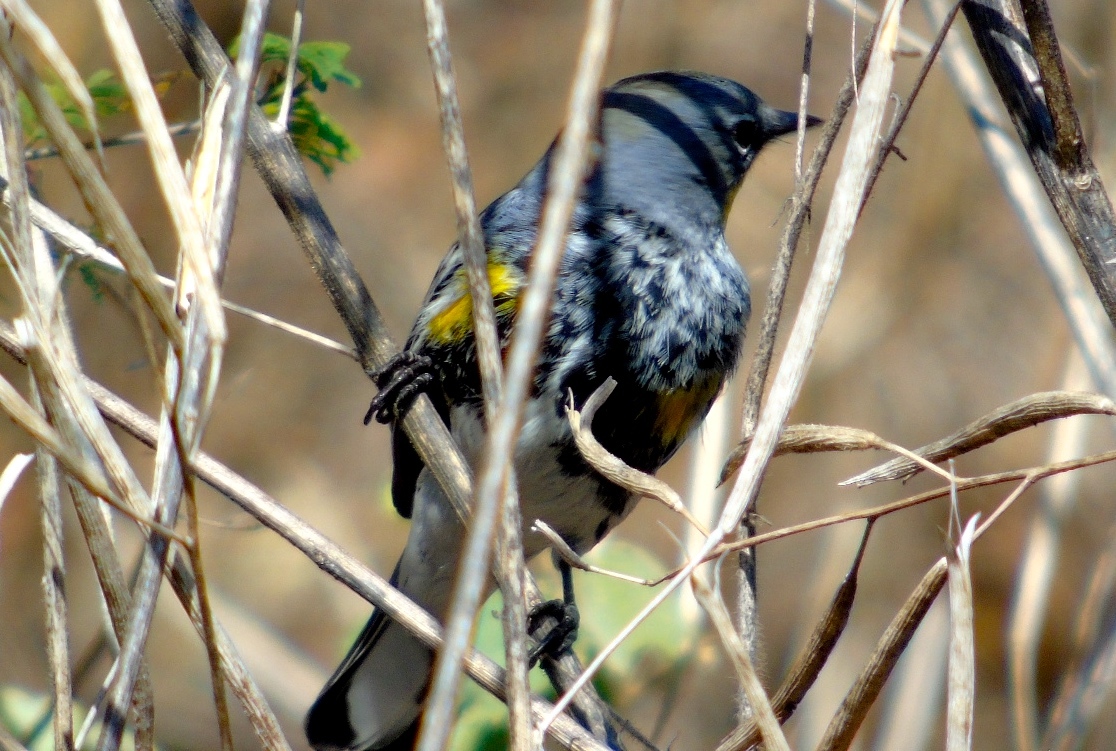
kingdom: Animalia
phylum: Chordata
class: Aves
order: Passeriformes
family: Parulidae
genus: Setophaga
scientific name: Setophaga auduboni
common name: Audubon's warbler
